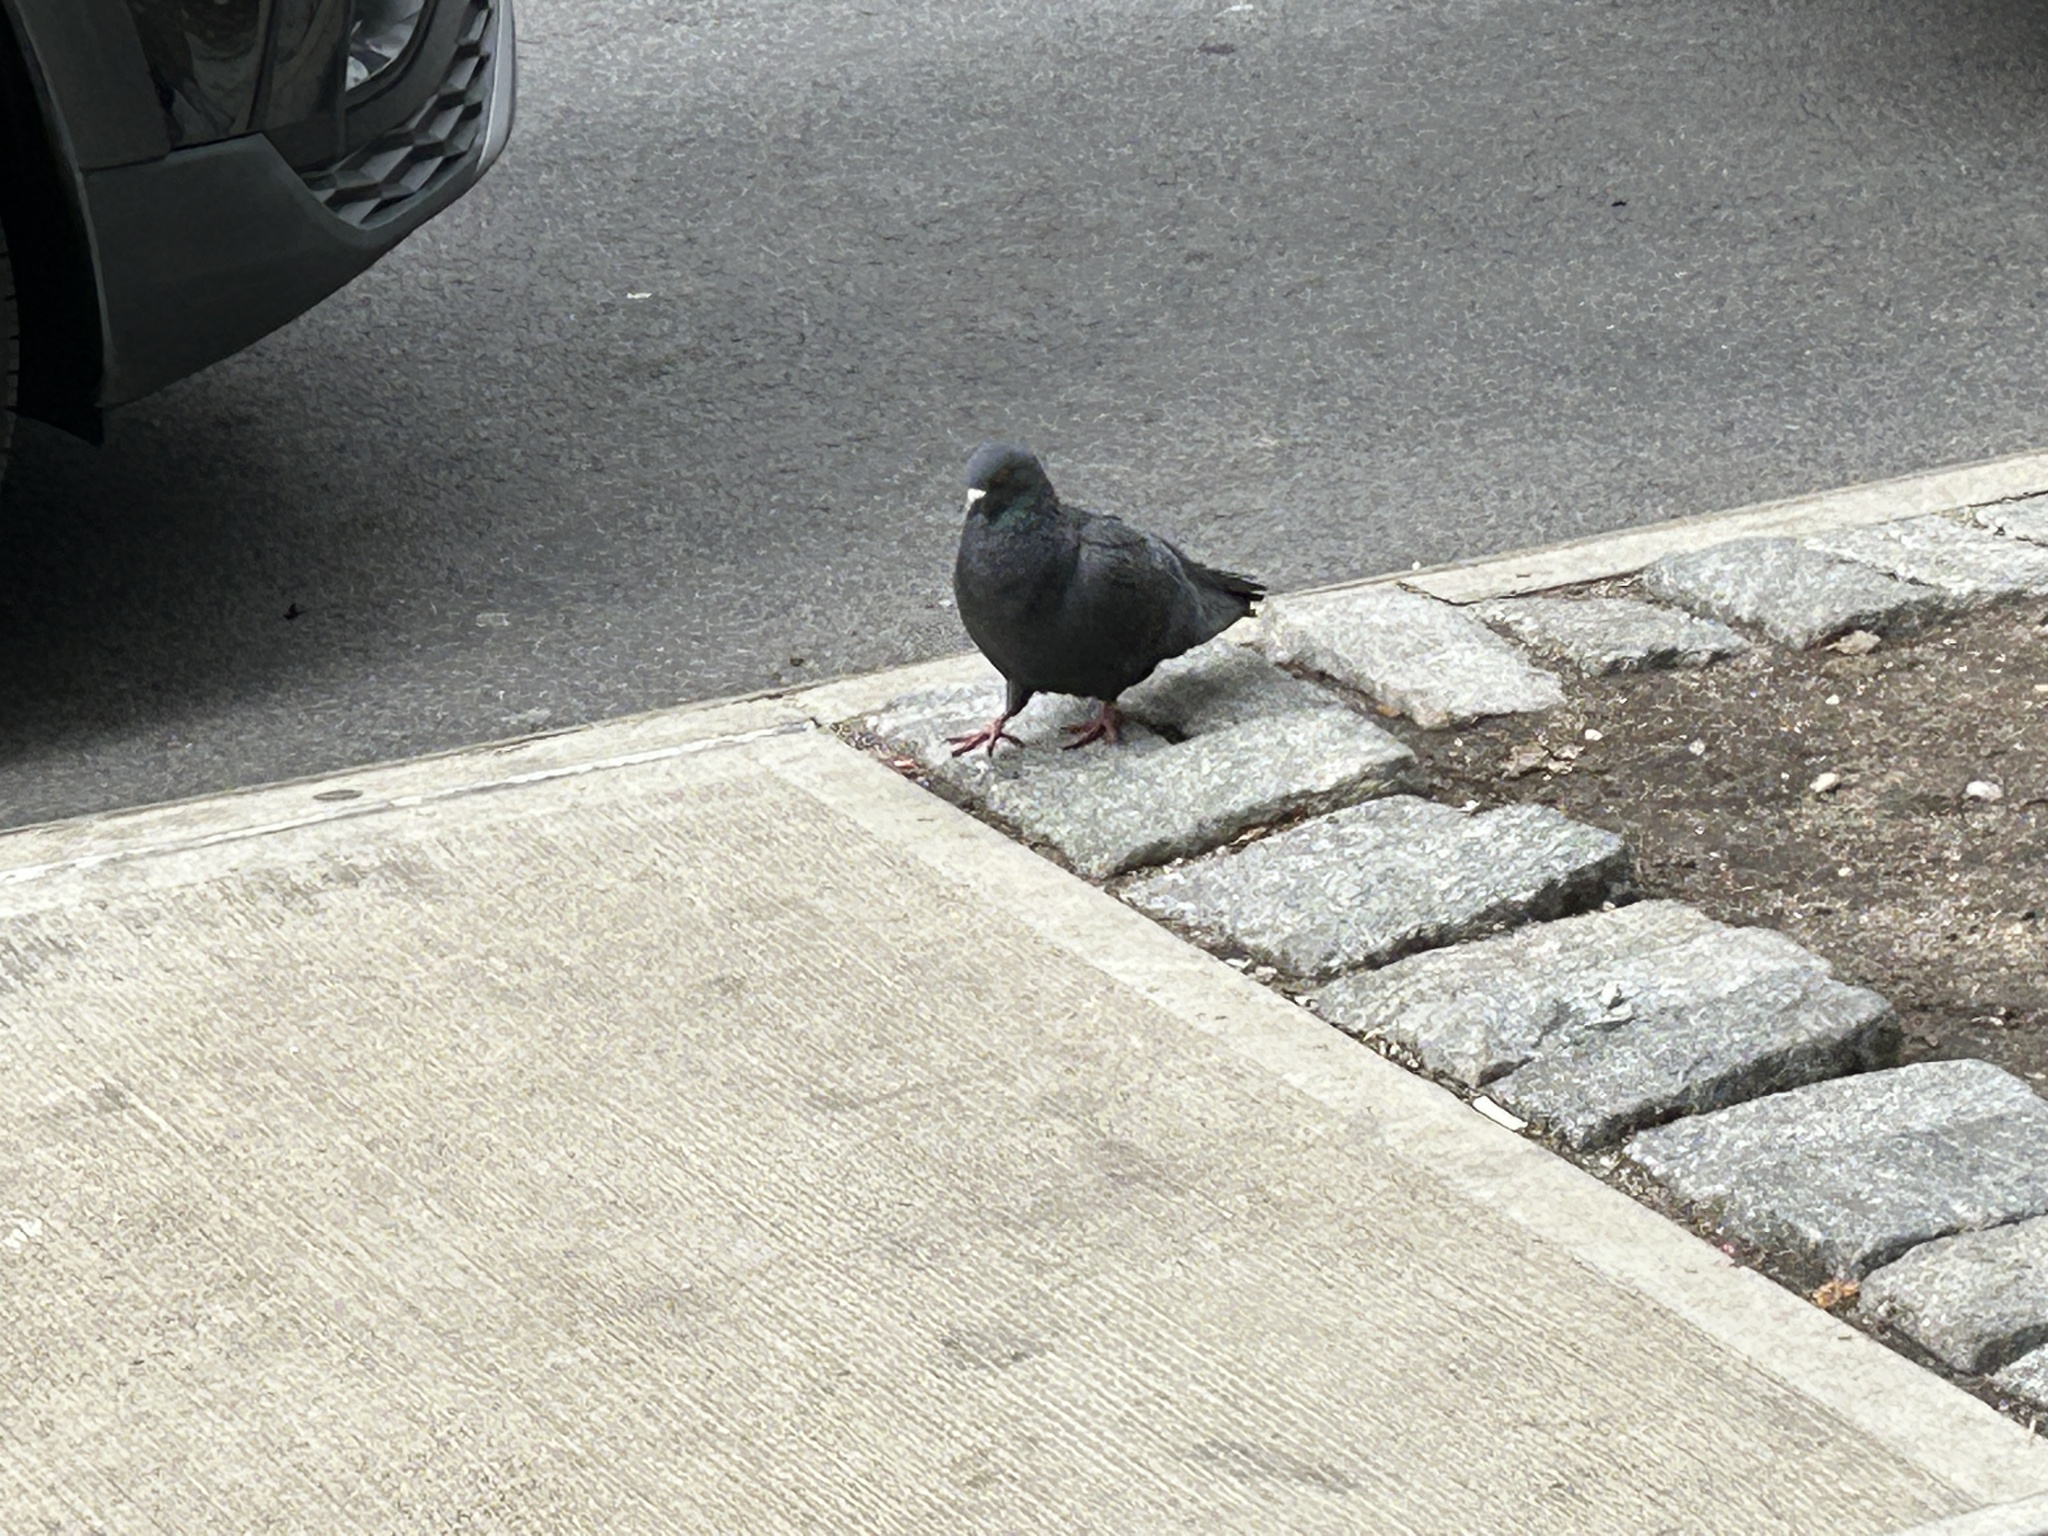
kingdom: Animalia
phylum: Chordata
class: Aves
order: Columbiformes
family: Columbidae
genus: Columba
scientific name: Columba livia
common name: Rock pigeon
